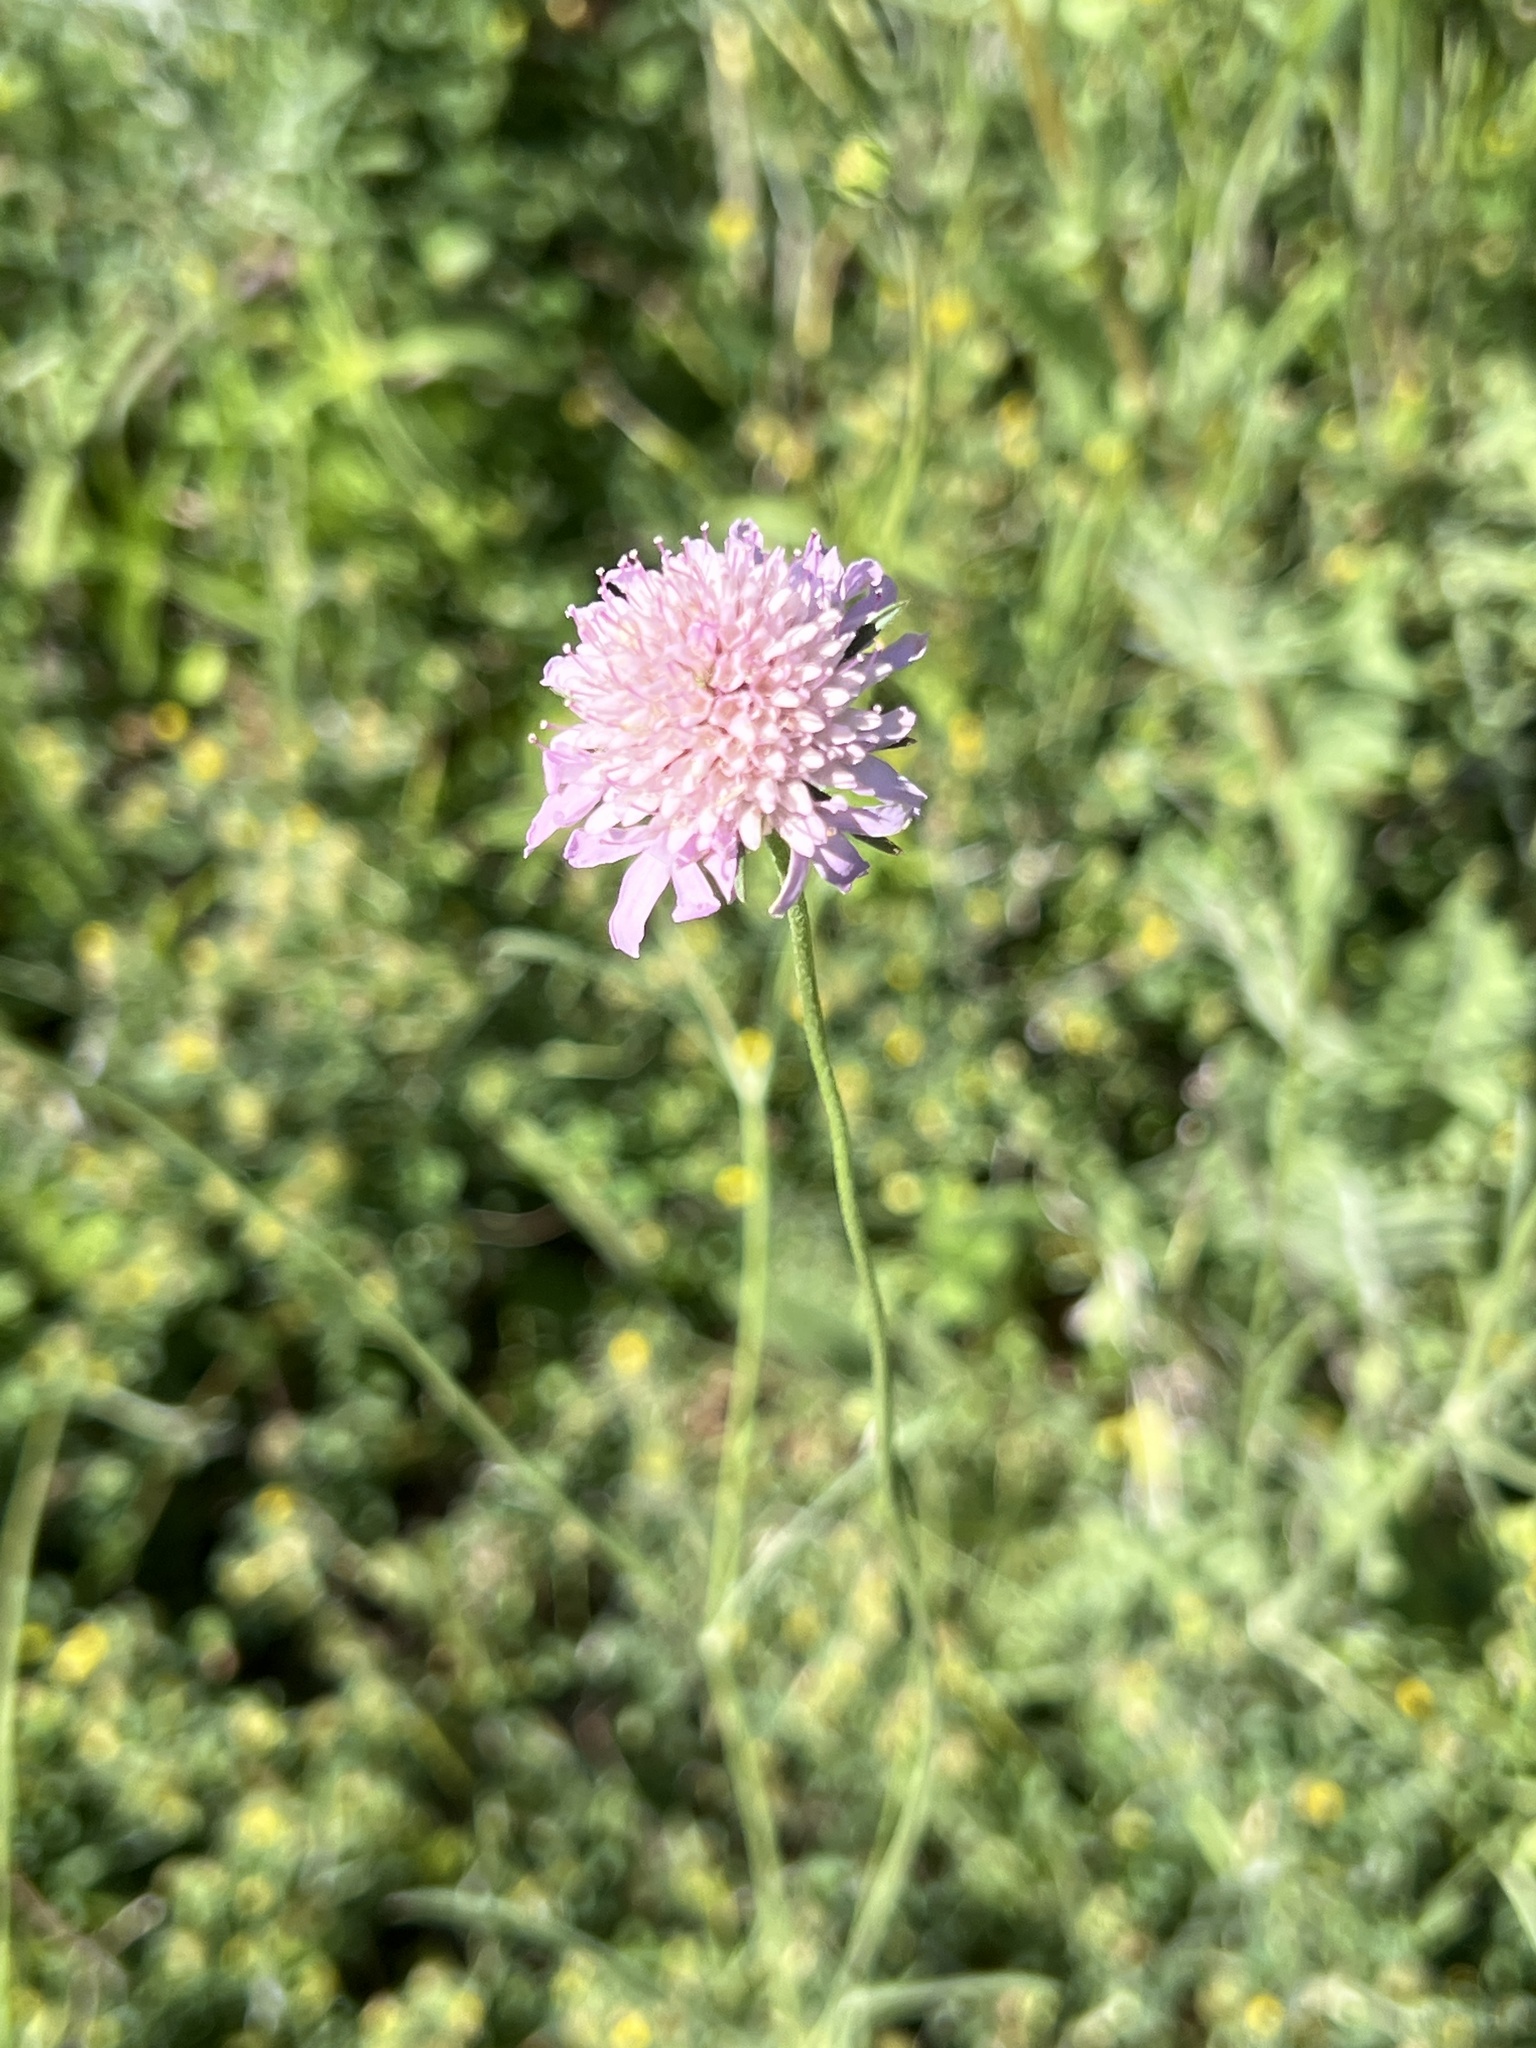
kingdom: Plantae
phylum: Tracheophyta
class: Magnoliopsida
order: Dipsacales
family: Caprifoliaceae
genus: Sixalix
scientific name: Sixalix atropurpurea
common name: Sweet scabious
